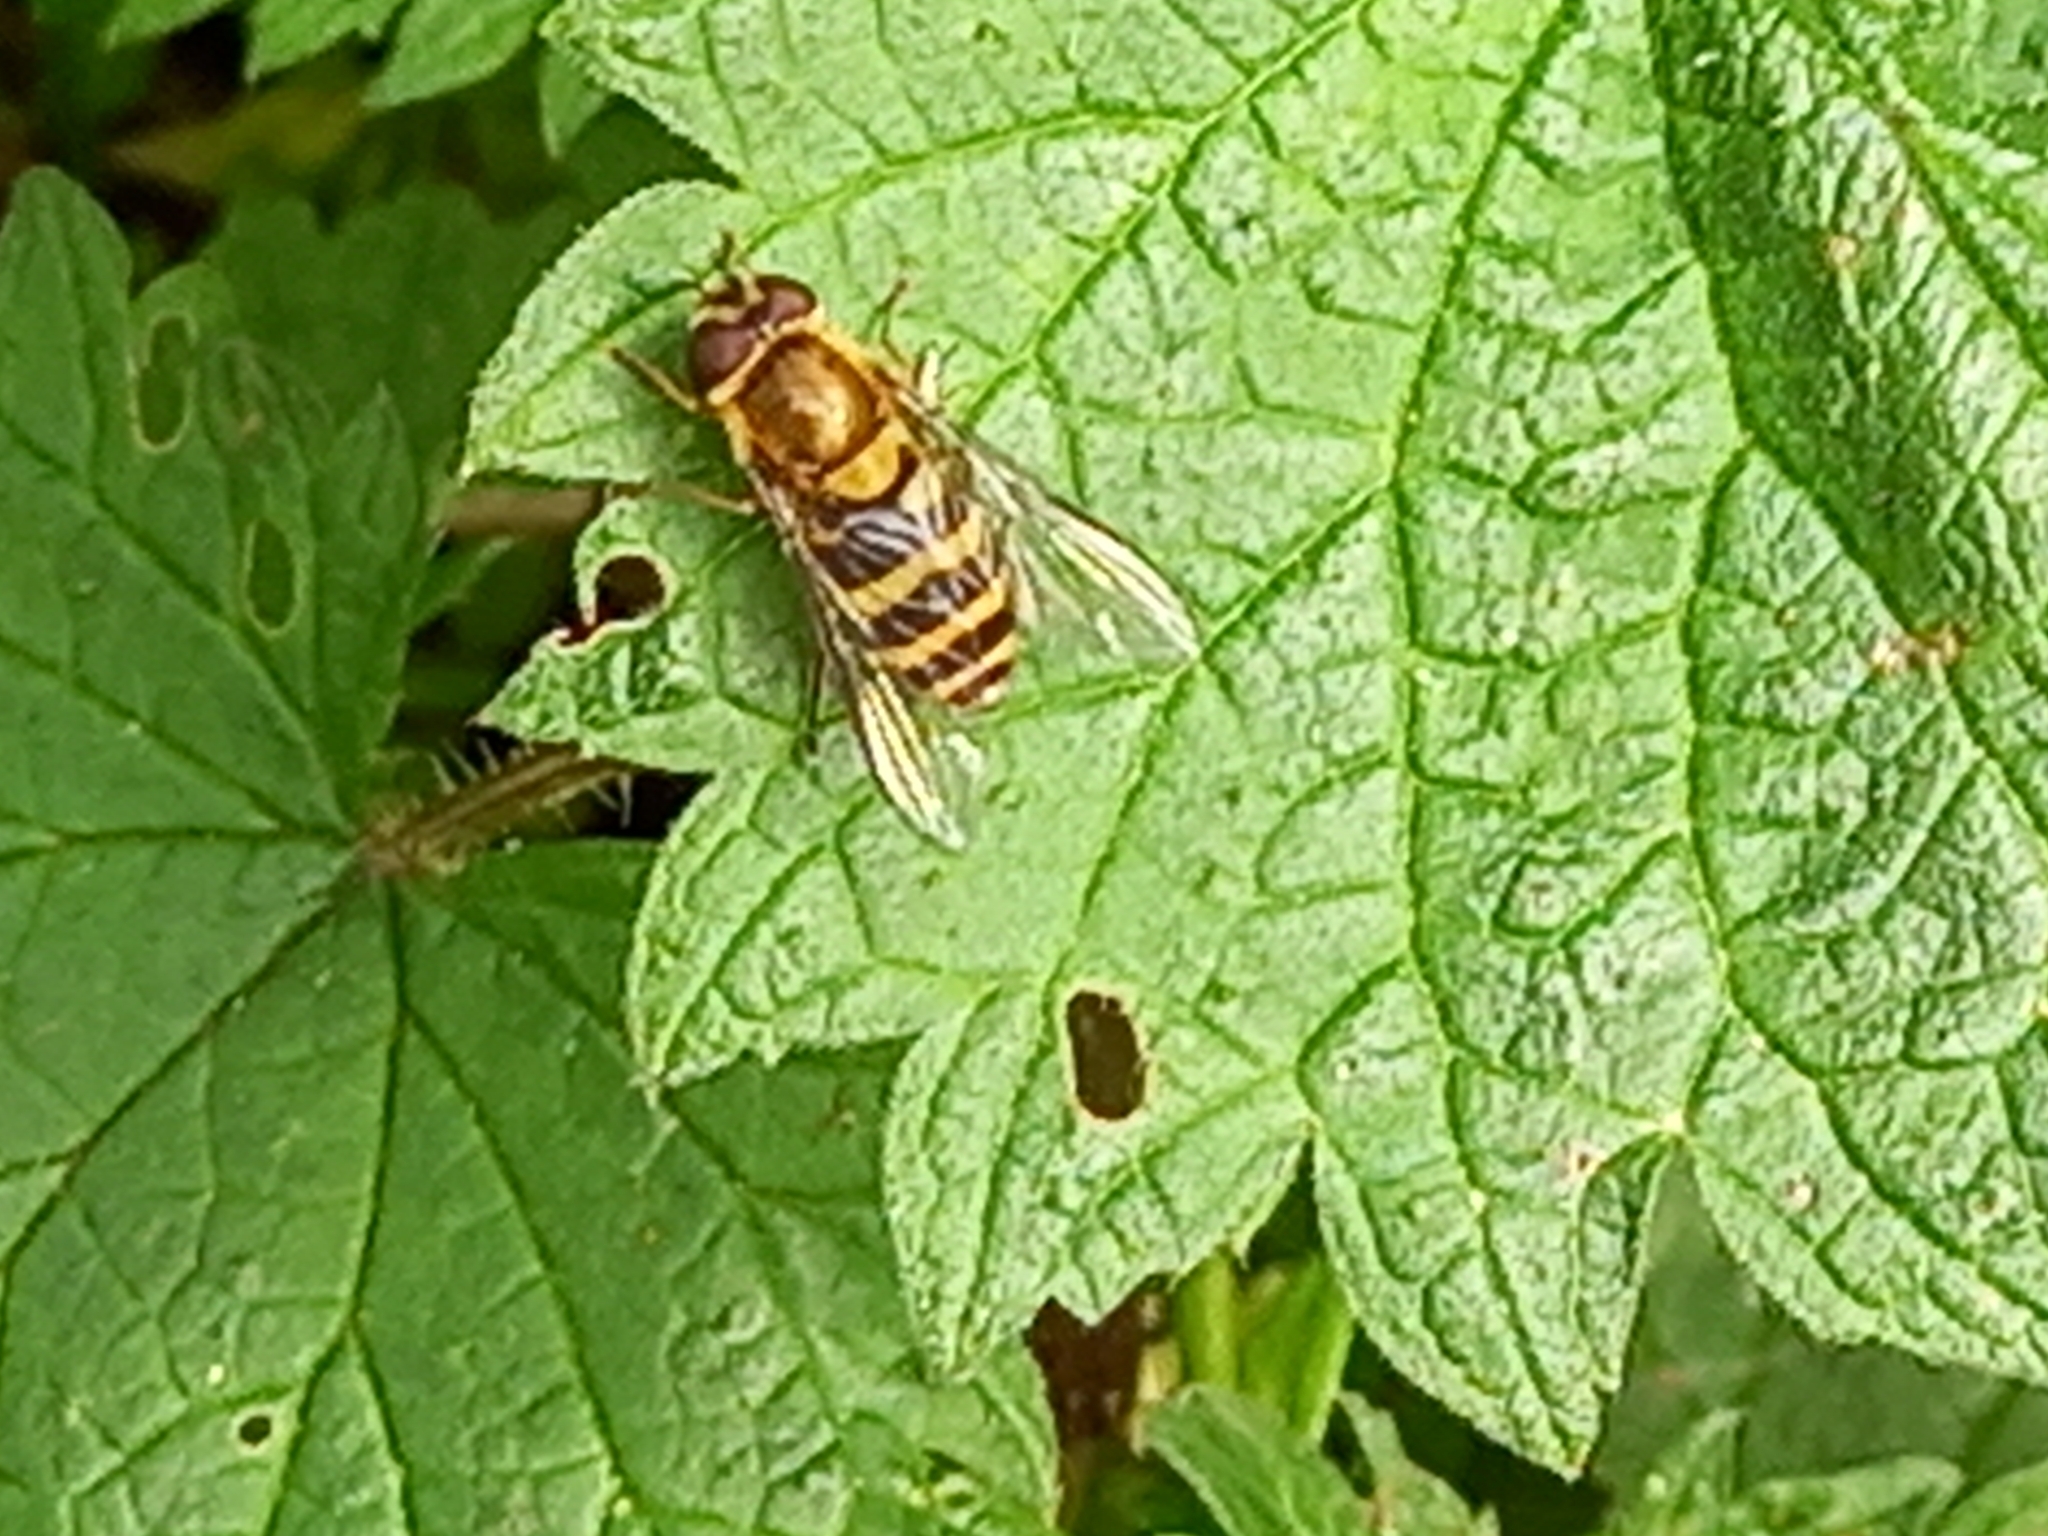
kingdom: Animalia
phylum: Arthropoda
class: Insecta
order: Diptera
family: Syrphidae
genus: Syrphus
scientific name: Syrphus
